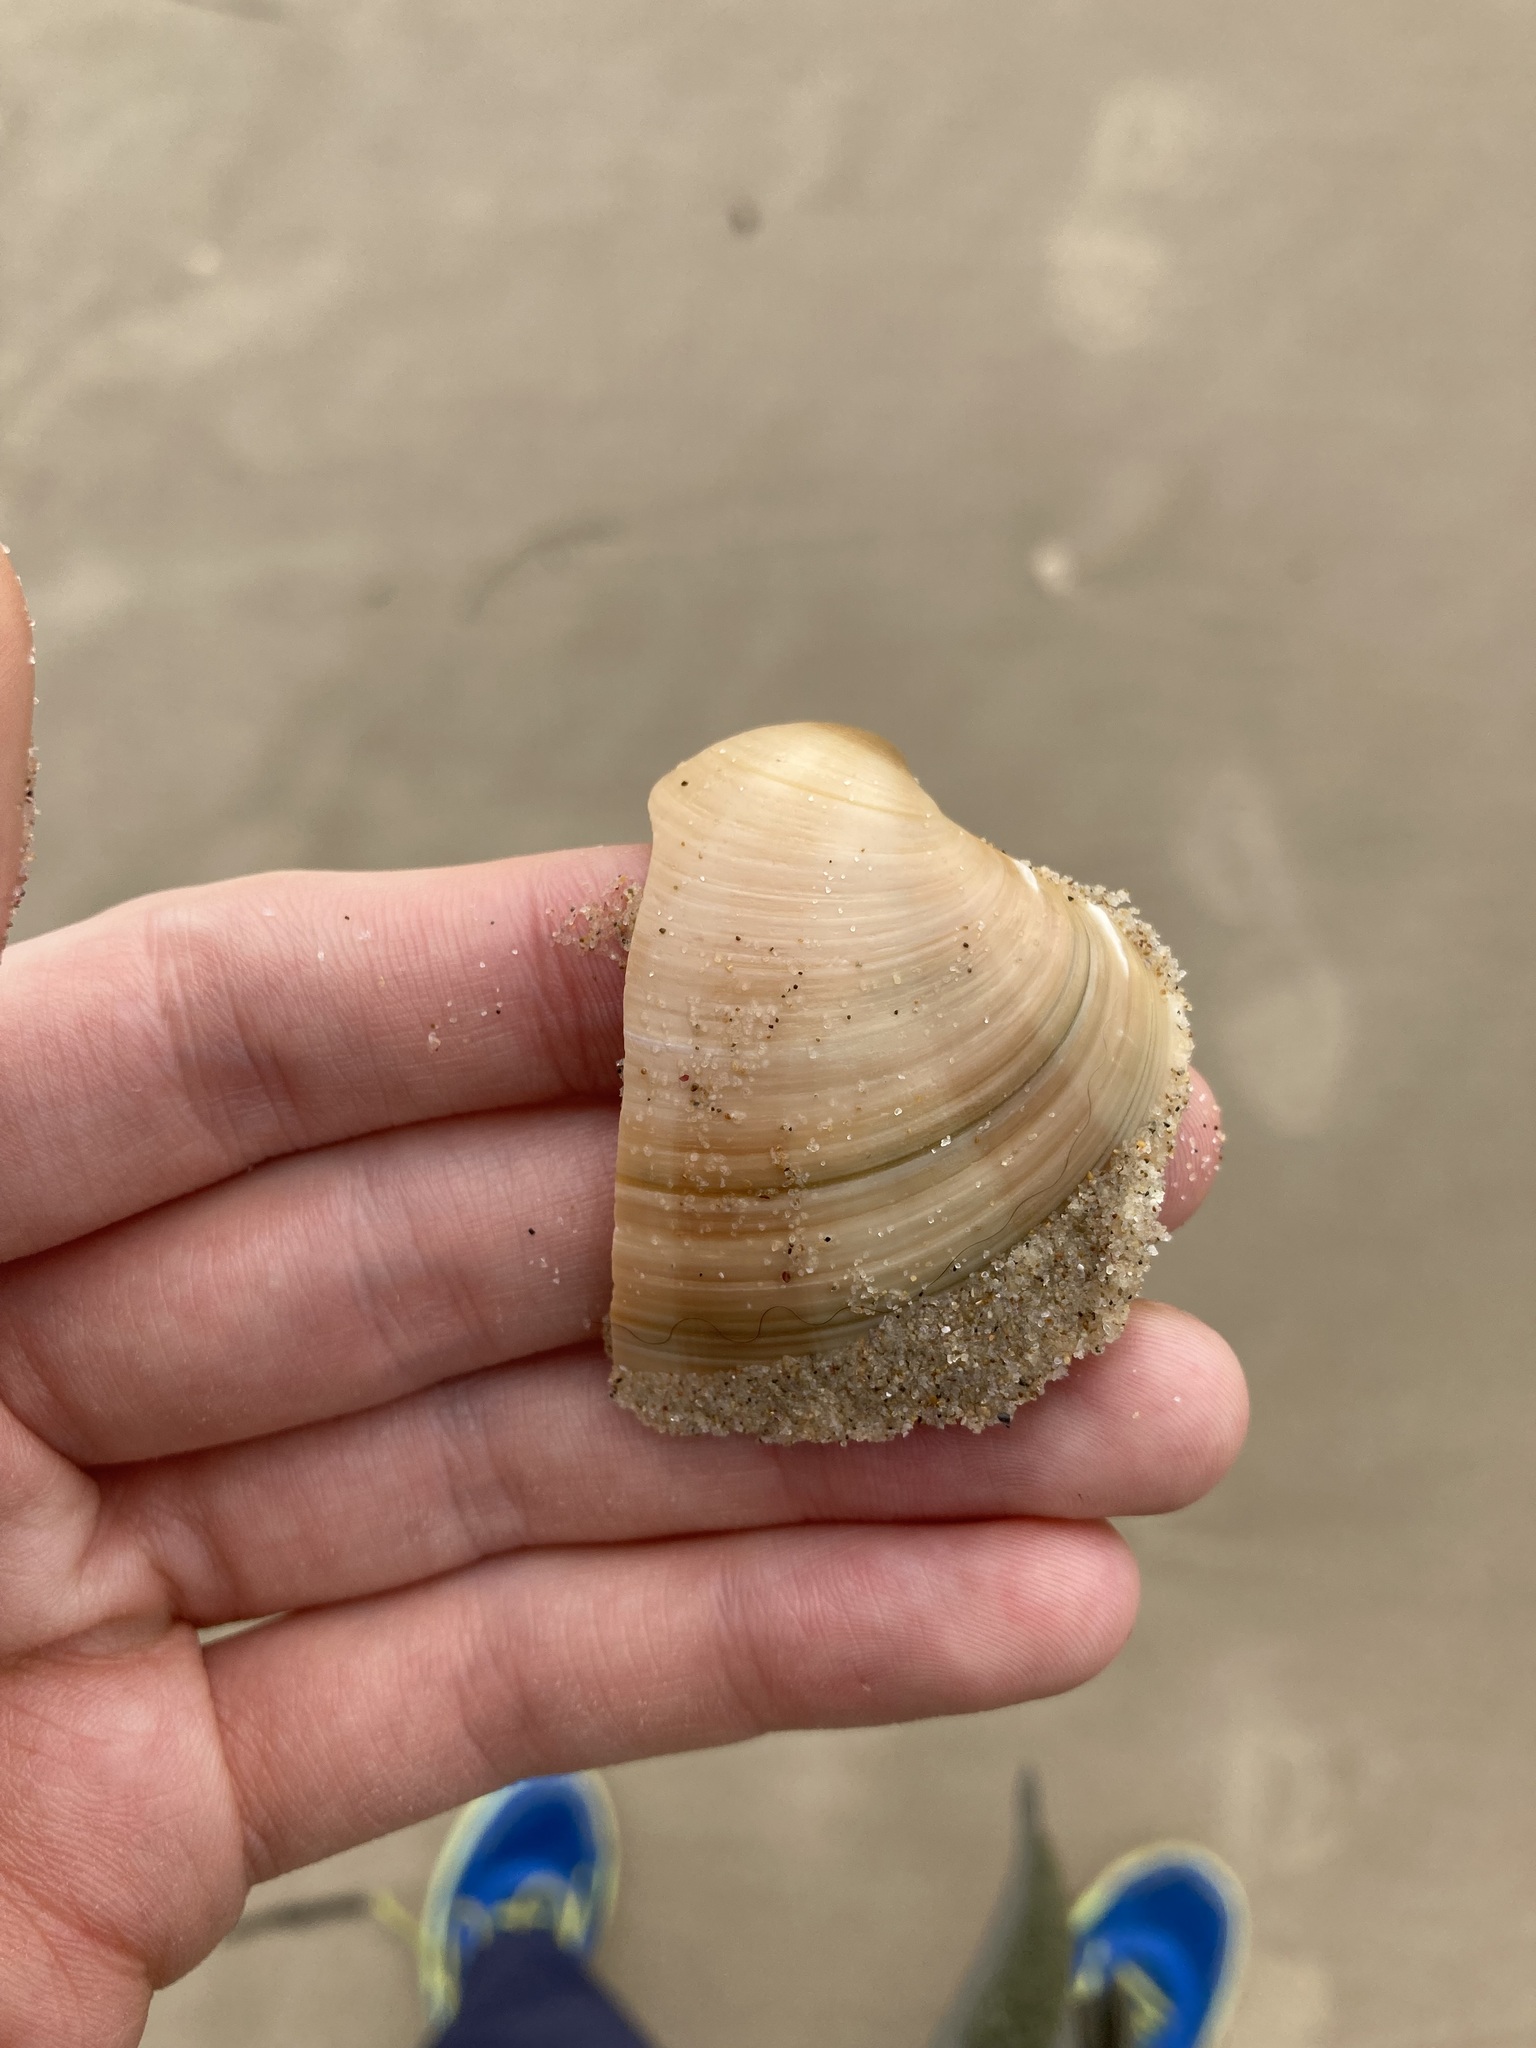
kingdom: Animalia
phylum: Mollusca
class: Bivalvia
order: Venerida
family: Veneridae
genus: Bassina
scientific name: Bassina pachyphylla
